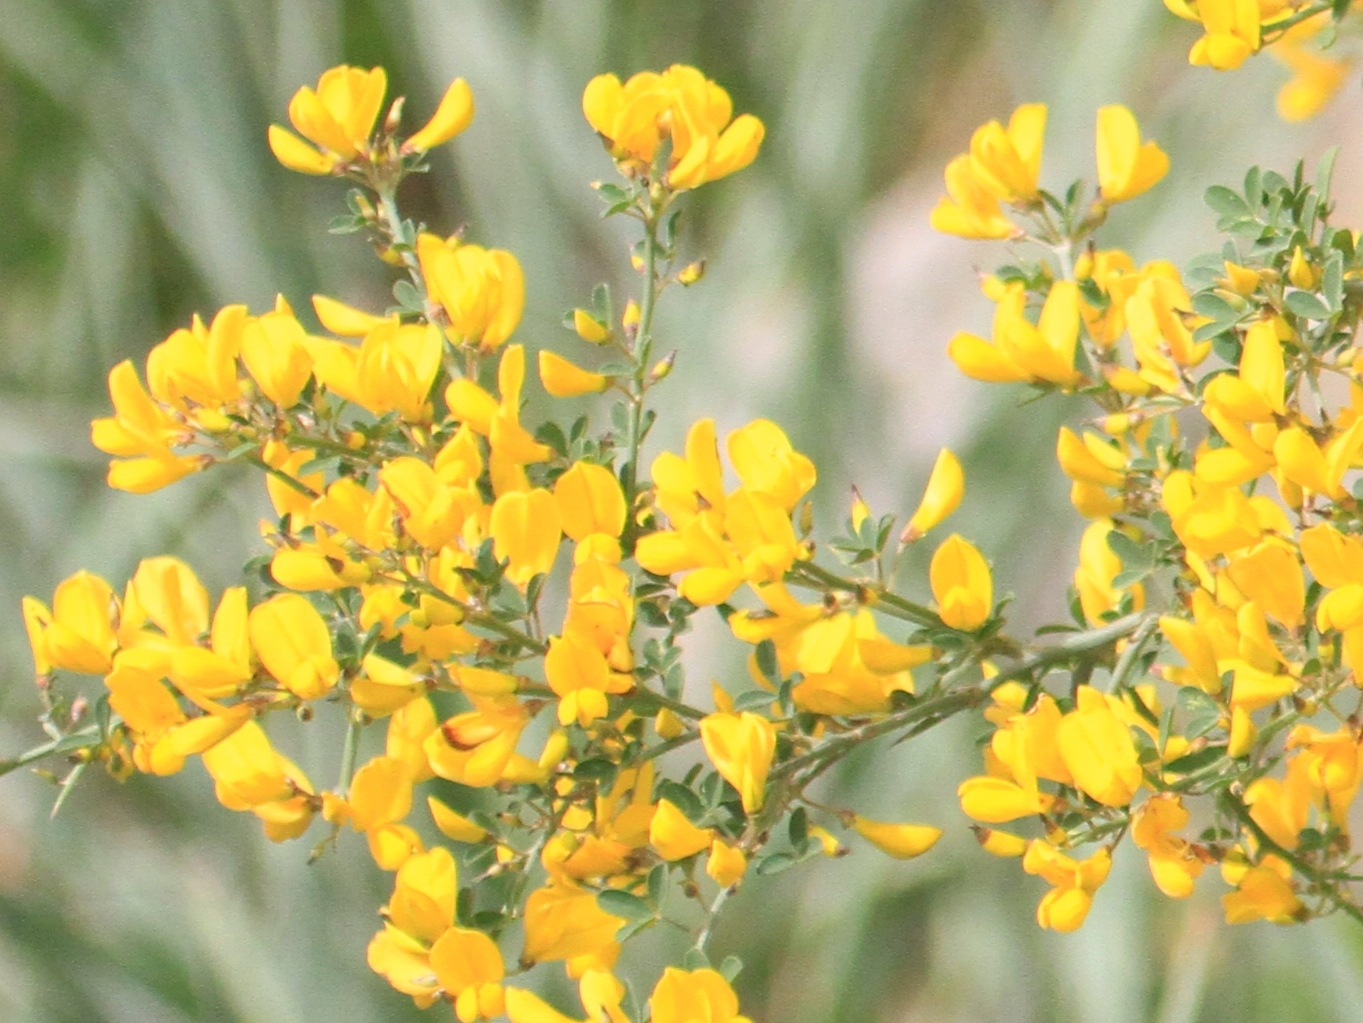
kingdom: Plantae
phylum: Tracheophyta
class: Magnoliopsida
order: Fabales
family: Fabaceae
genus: Calicotome
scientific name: Calicotome spinosa
